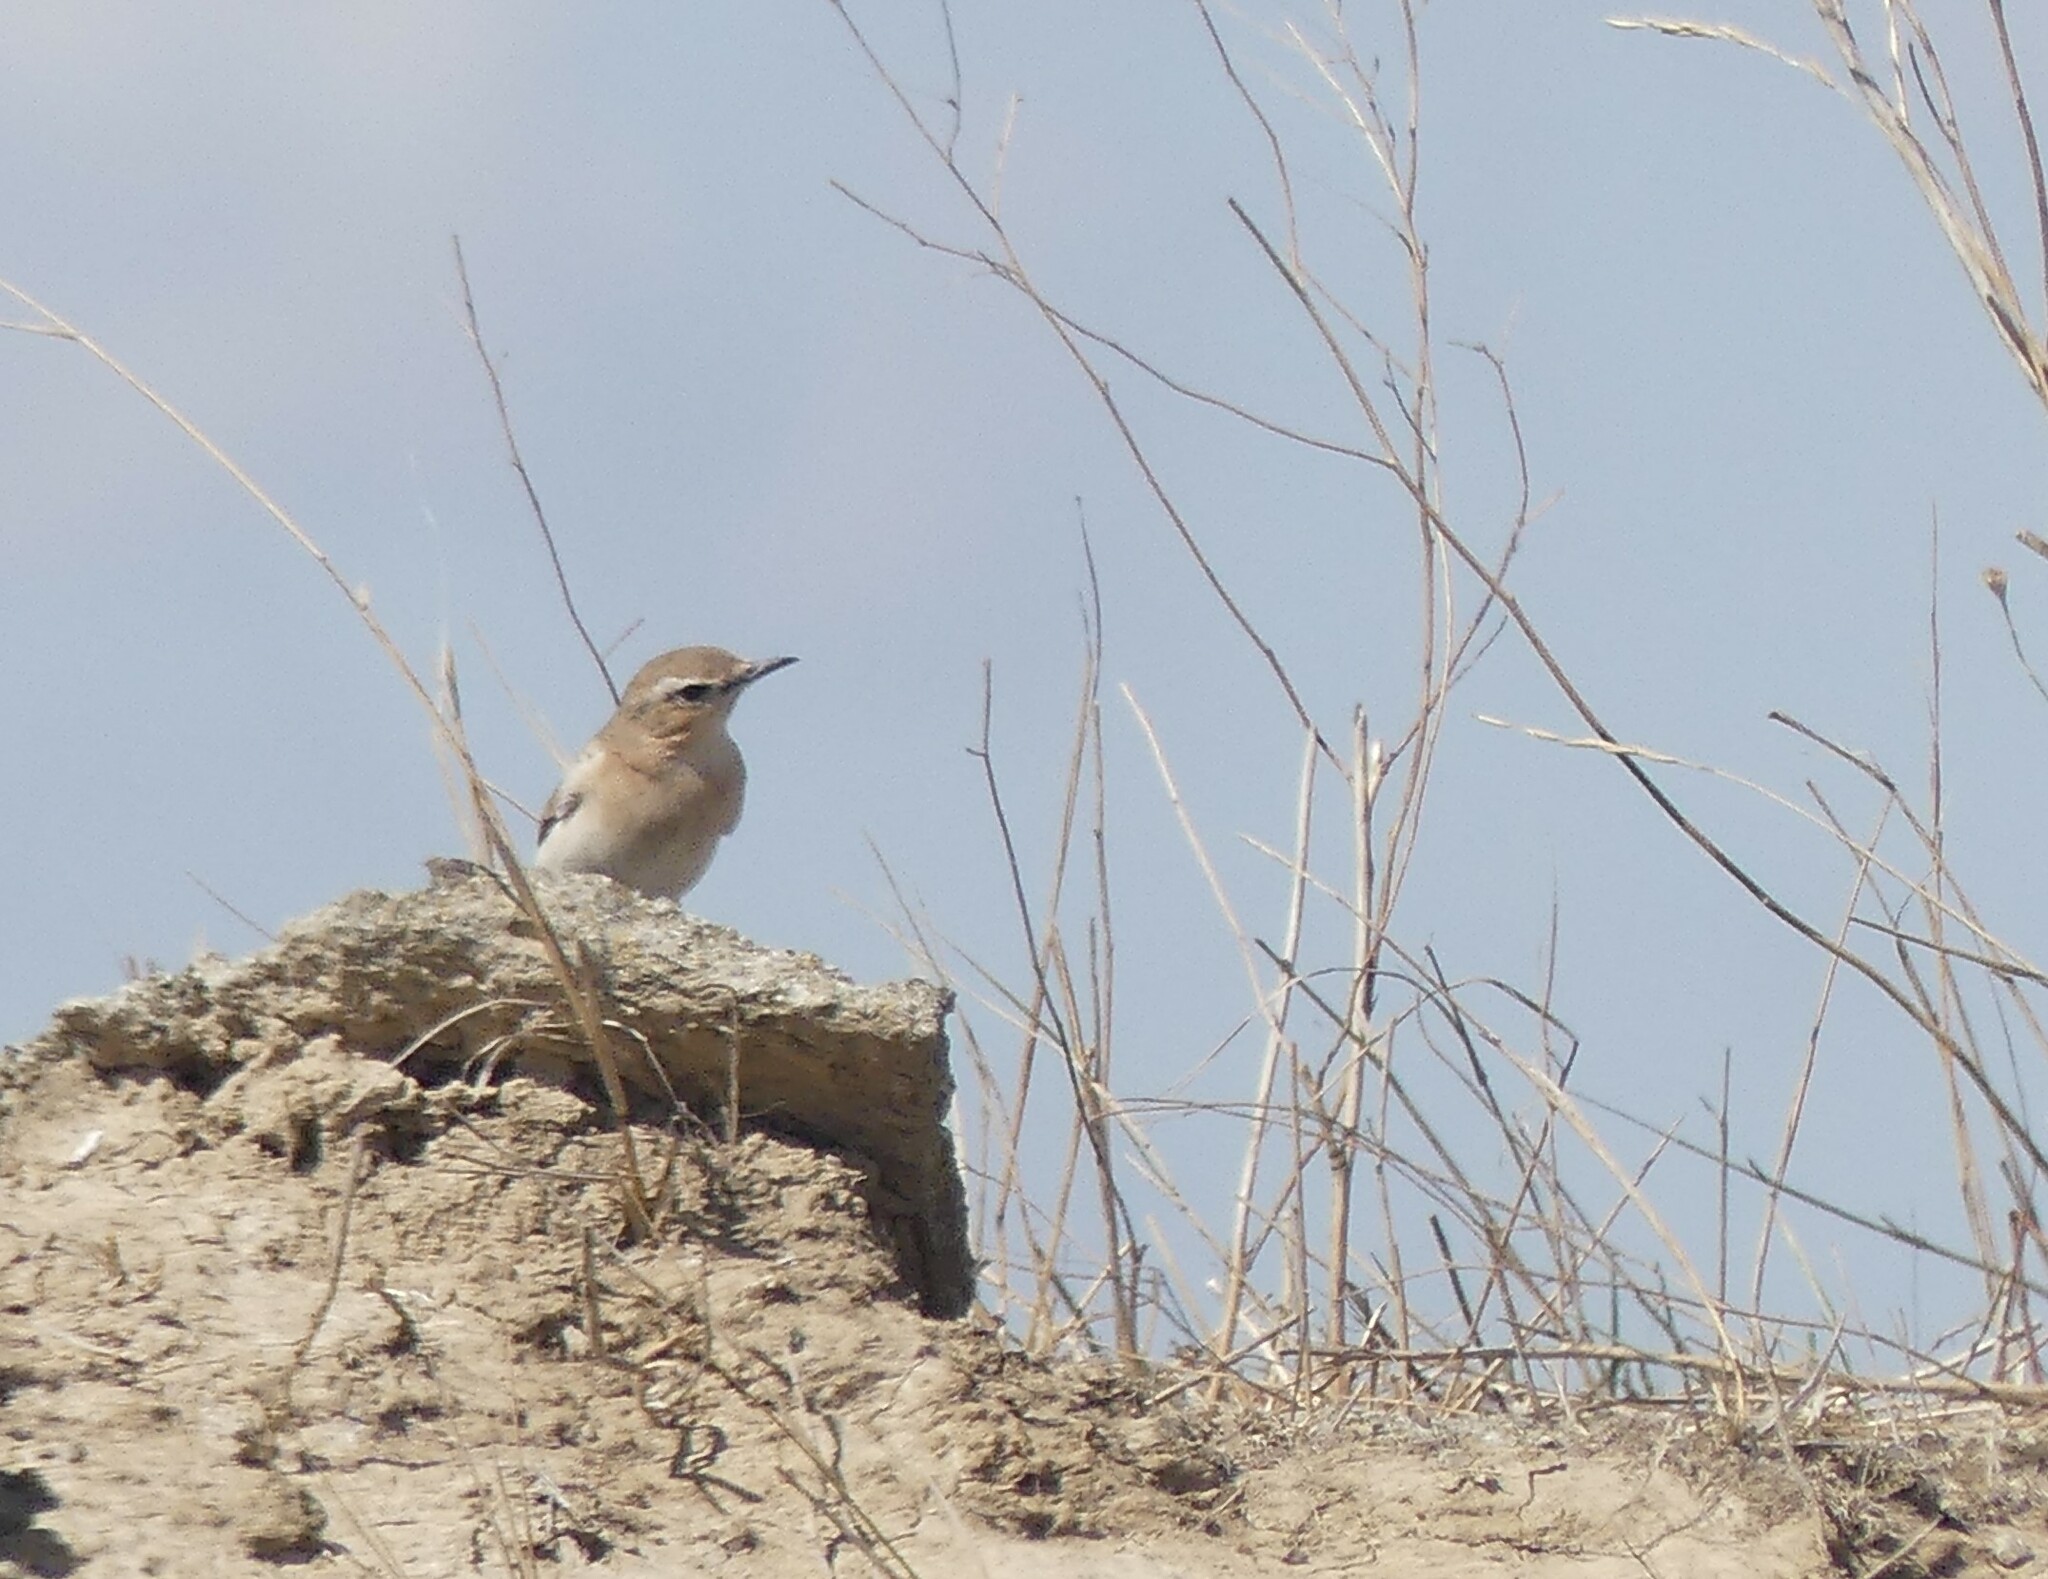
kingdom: Animalia
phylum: Chordata
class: Aves
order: Passeriformes
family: Muscicapidae
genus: Oenanthe
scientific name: Oenanthe oenanthe
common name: Northern wheatear
